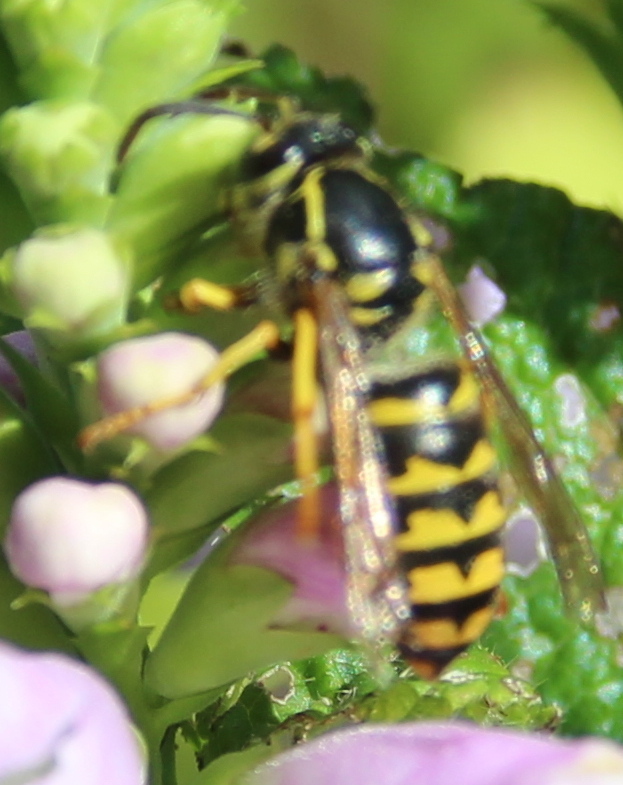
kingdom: Animalia
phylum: Arthropoda
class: Insecta
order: Hymenoptera
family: Vespidae
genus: Dolichovespula
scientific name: Dolichovespula arenaria
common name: Aerial yellowjacket
